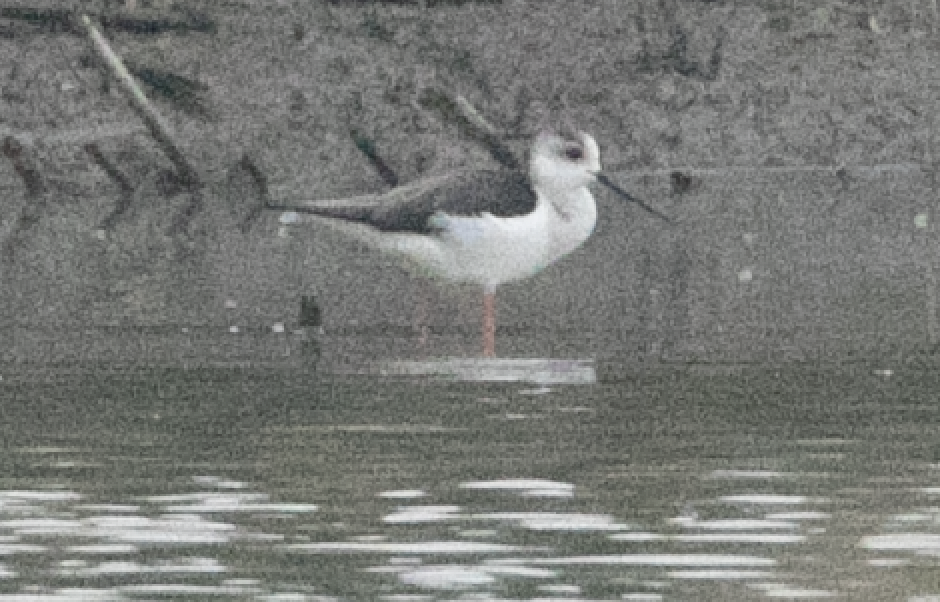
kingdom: Animalia
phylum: Chordata
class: Aves
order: Charadriiformes
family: Recurvirostridae
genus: Himantopus
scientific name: Himantopus himantopus
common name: Black-winged stilt
